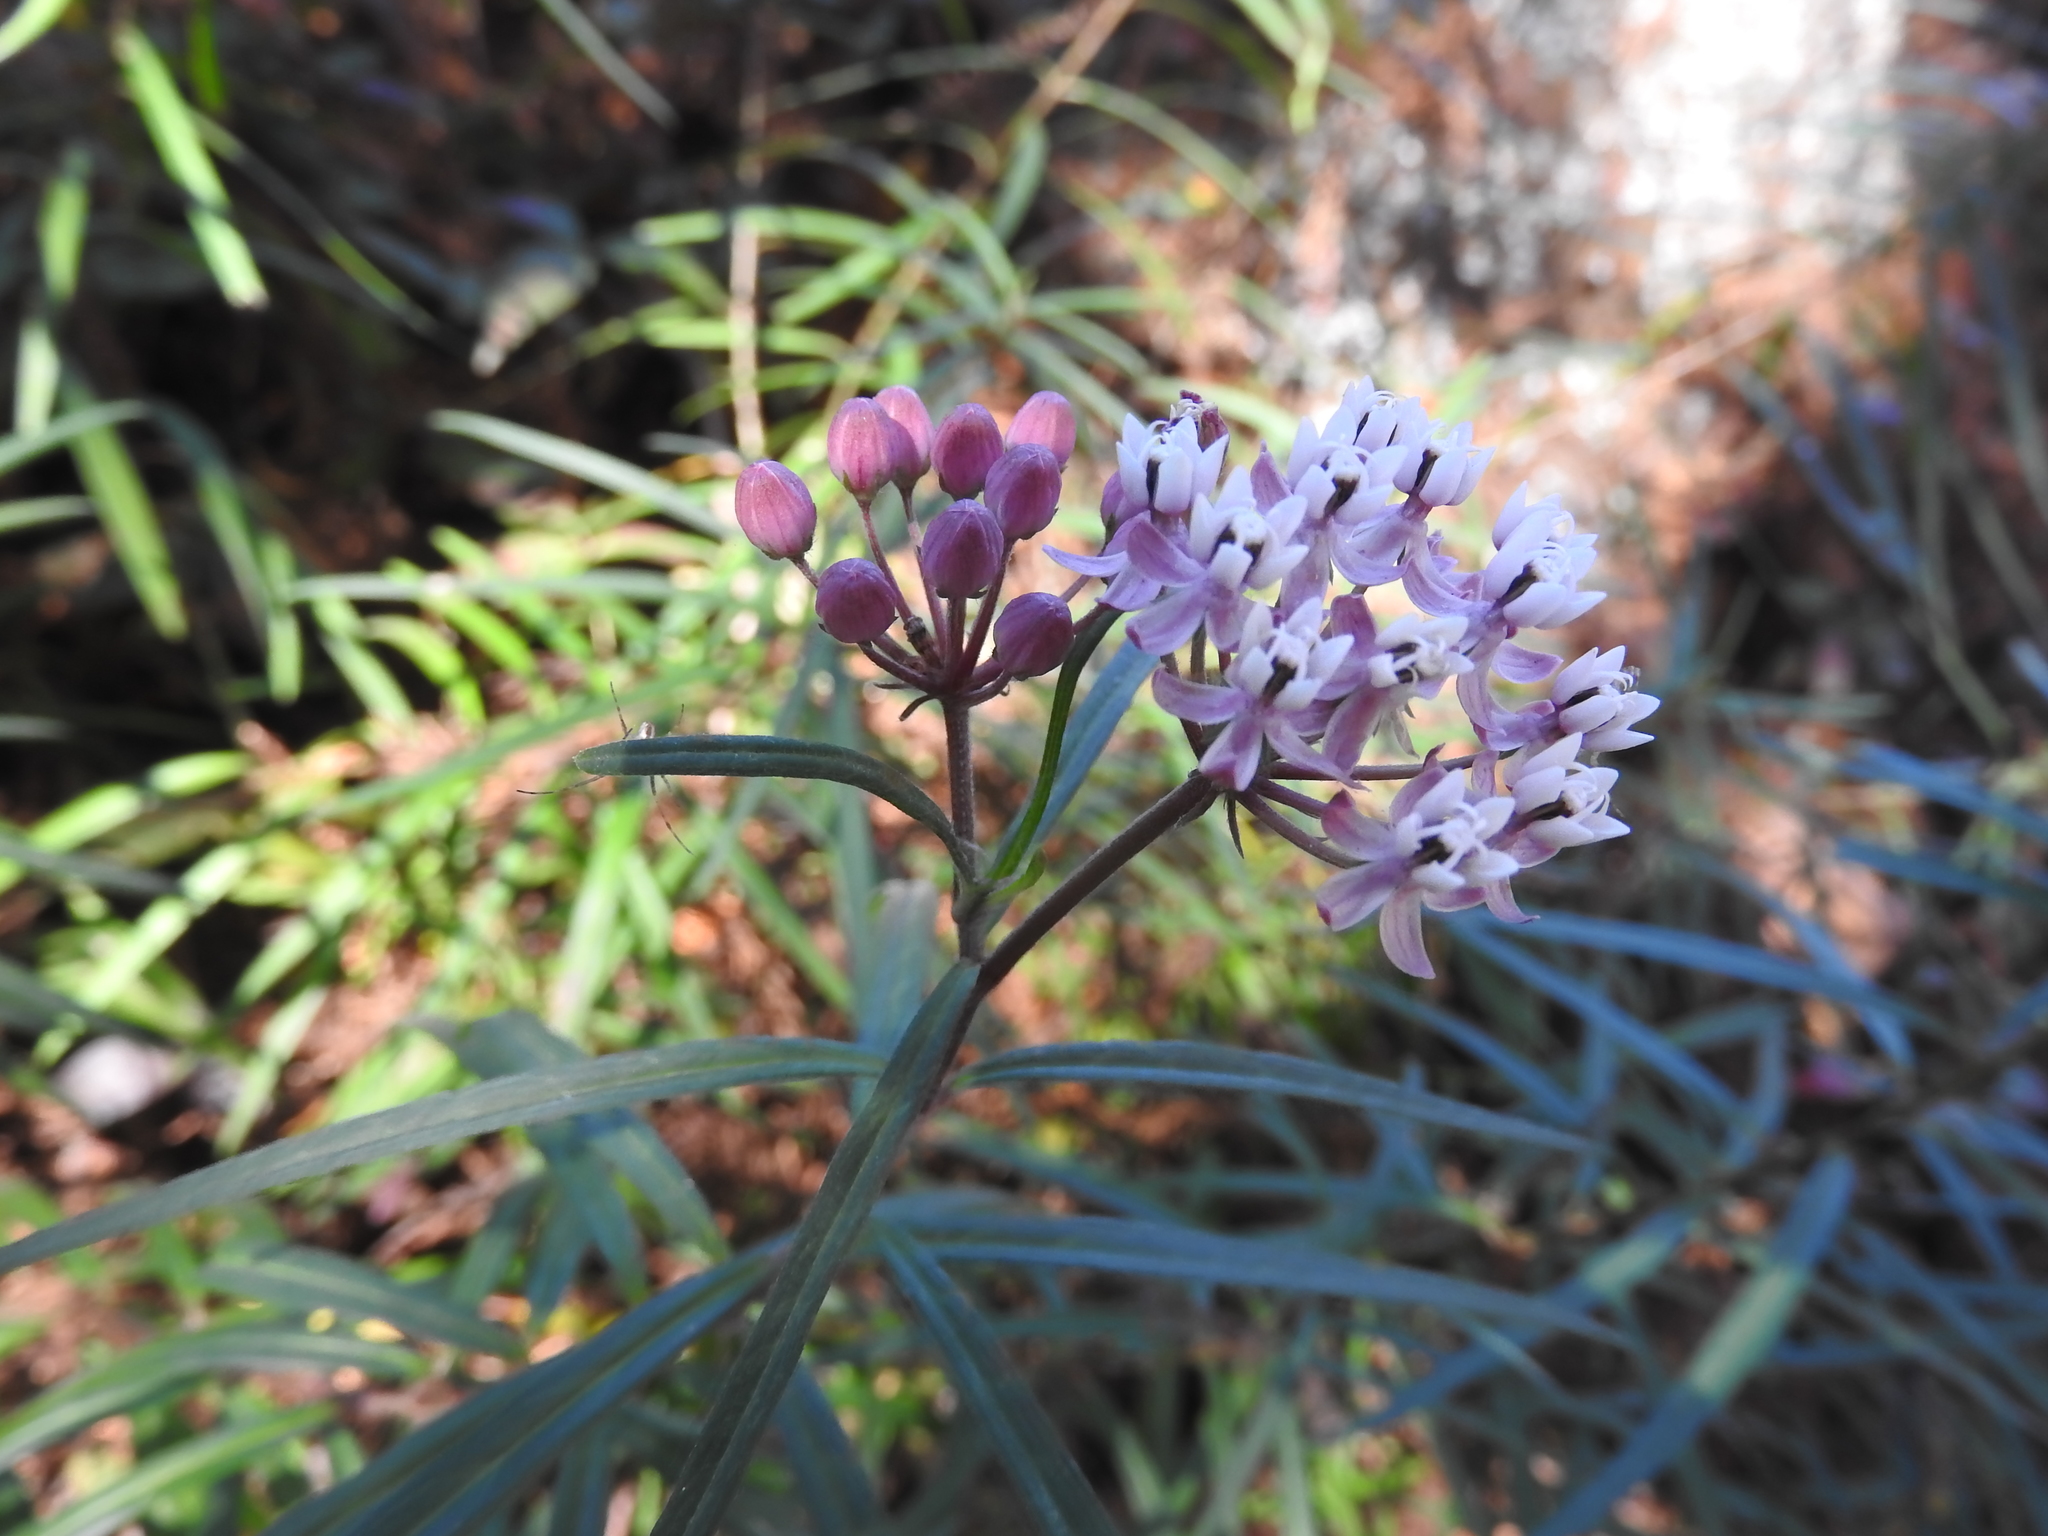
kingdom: Plantae
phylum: Tracheophyta
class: Magnoliopsida
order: Gentianales
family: Apocynaceae
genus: Asclepias
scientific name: Asclepias angustifolia
